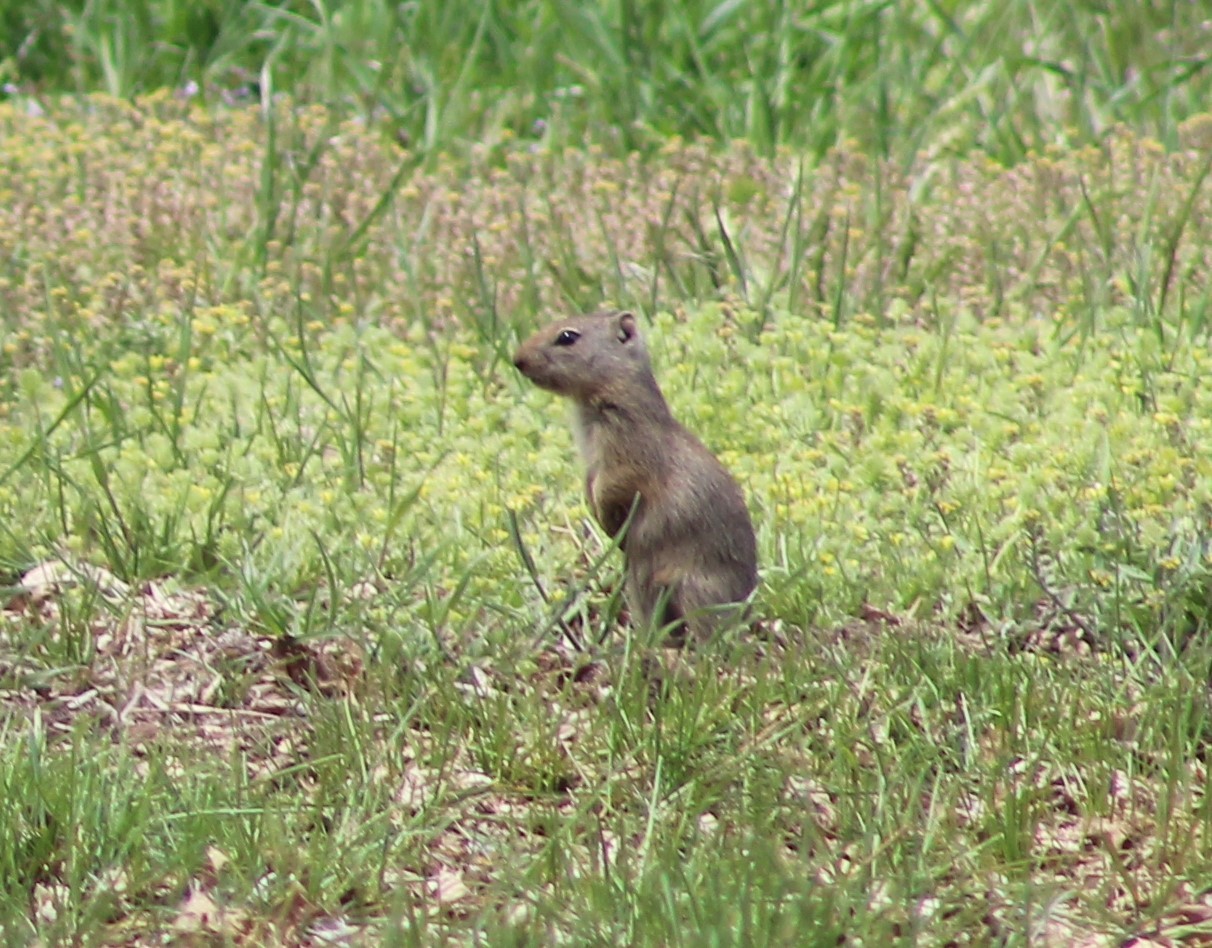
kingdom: Animalia
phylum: Chordata
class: Mammalia
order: Rodentia
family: Sciuridae
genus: Urocitellus
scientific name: Urocitellus beldingi
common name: Belding's ground squirrel
